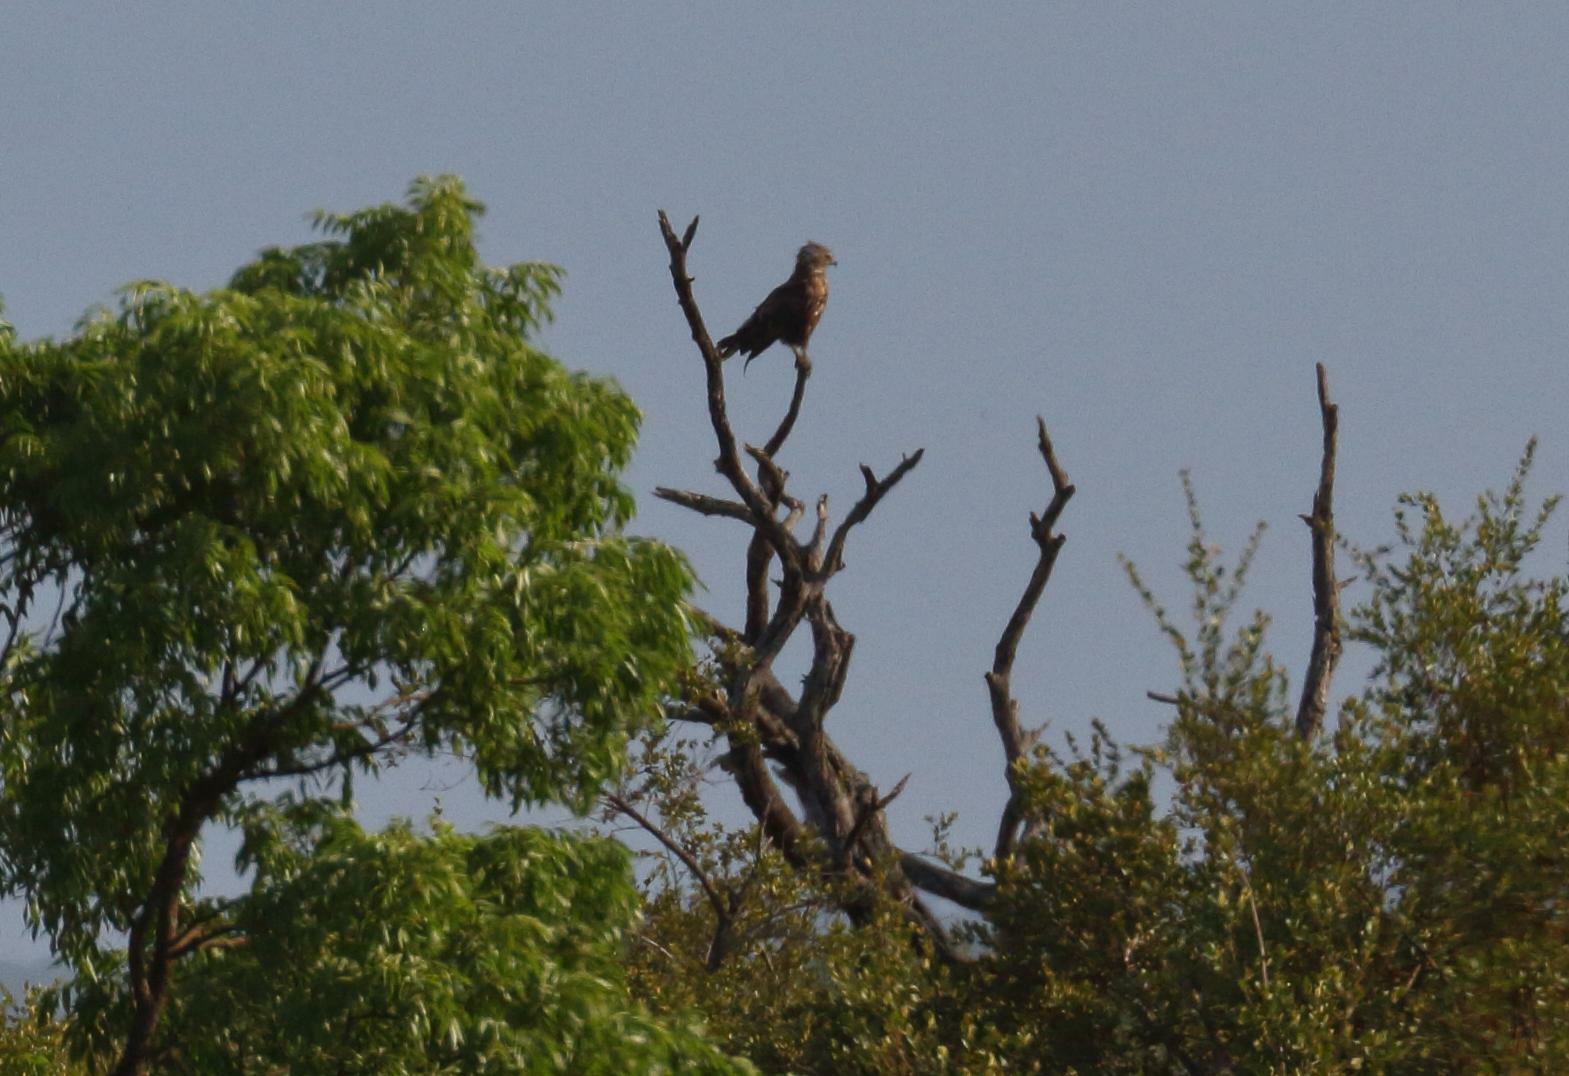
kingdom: Animalia
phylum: Chordata
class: Aves
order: Accipitriformes
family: Accipitridae
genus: Circaetus
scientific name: Circaetus cinereus
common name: Brown snake eagle
